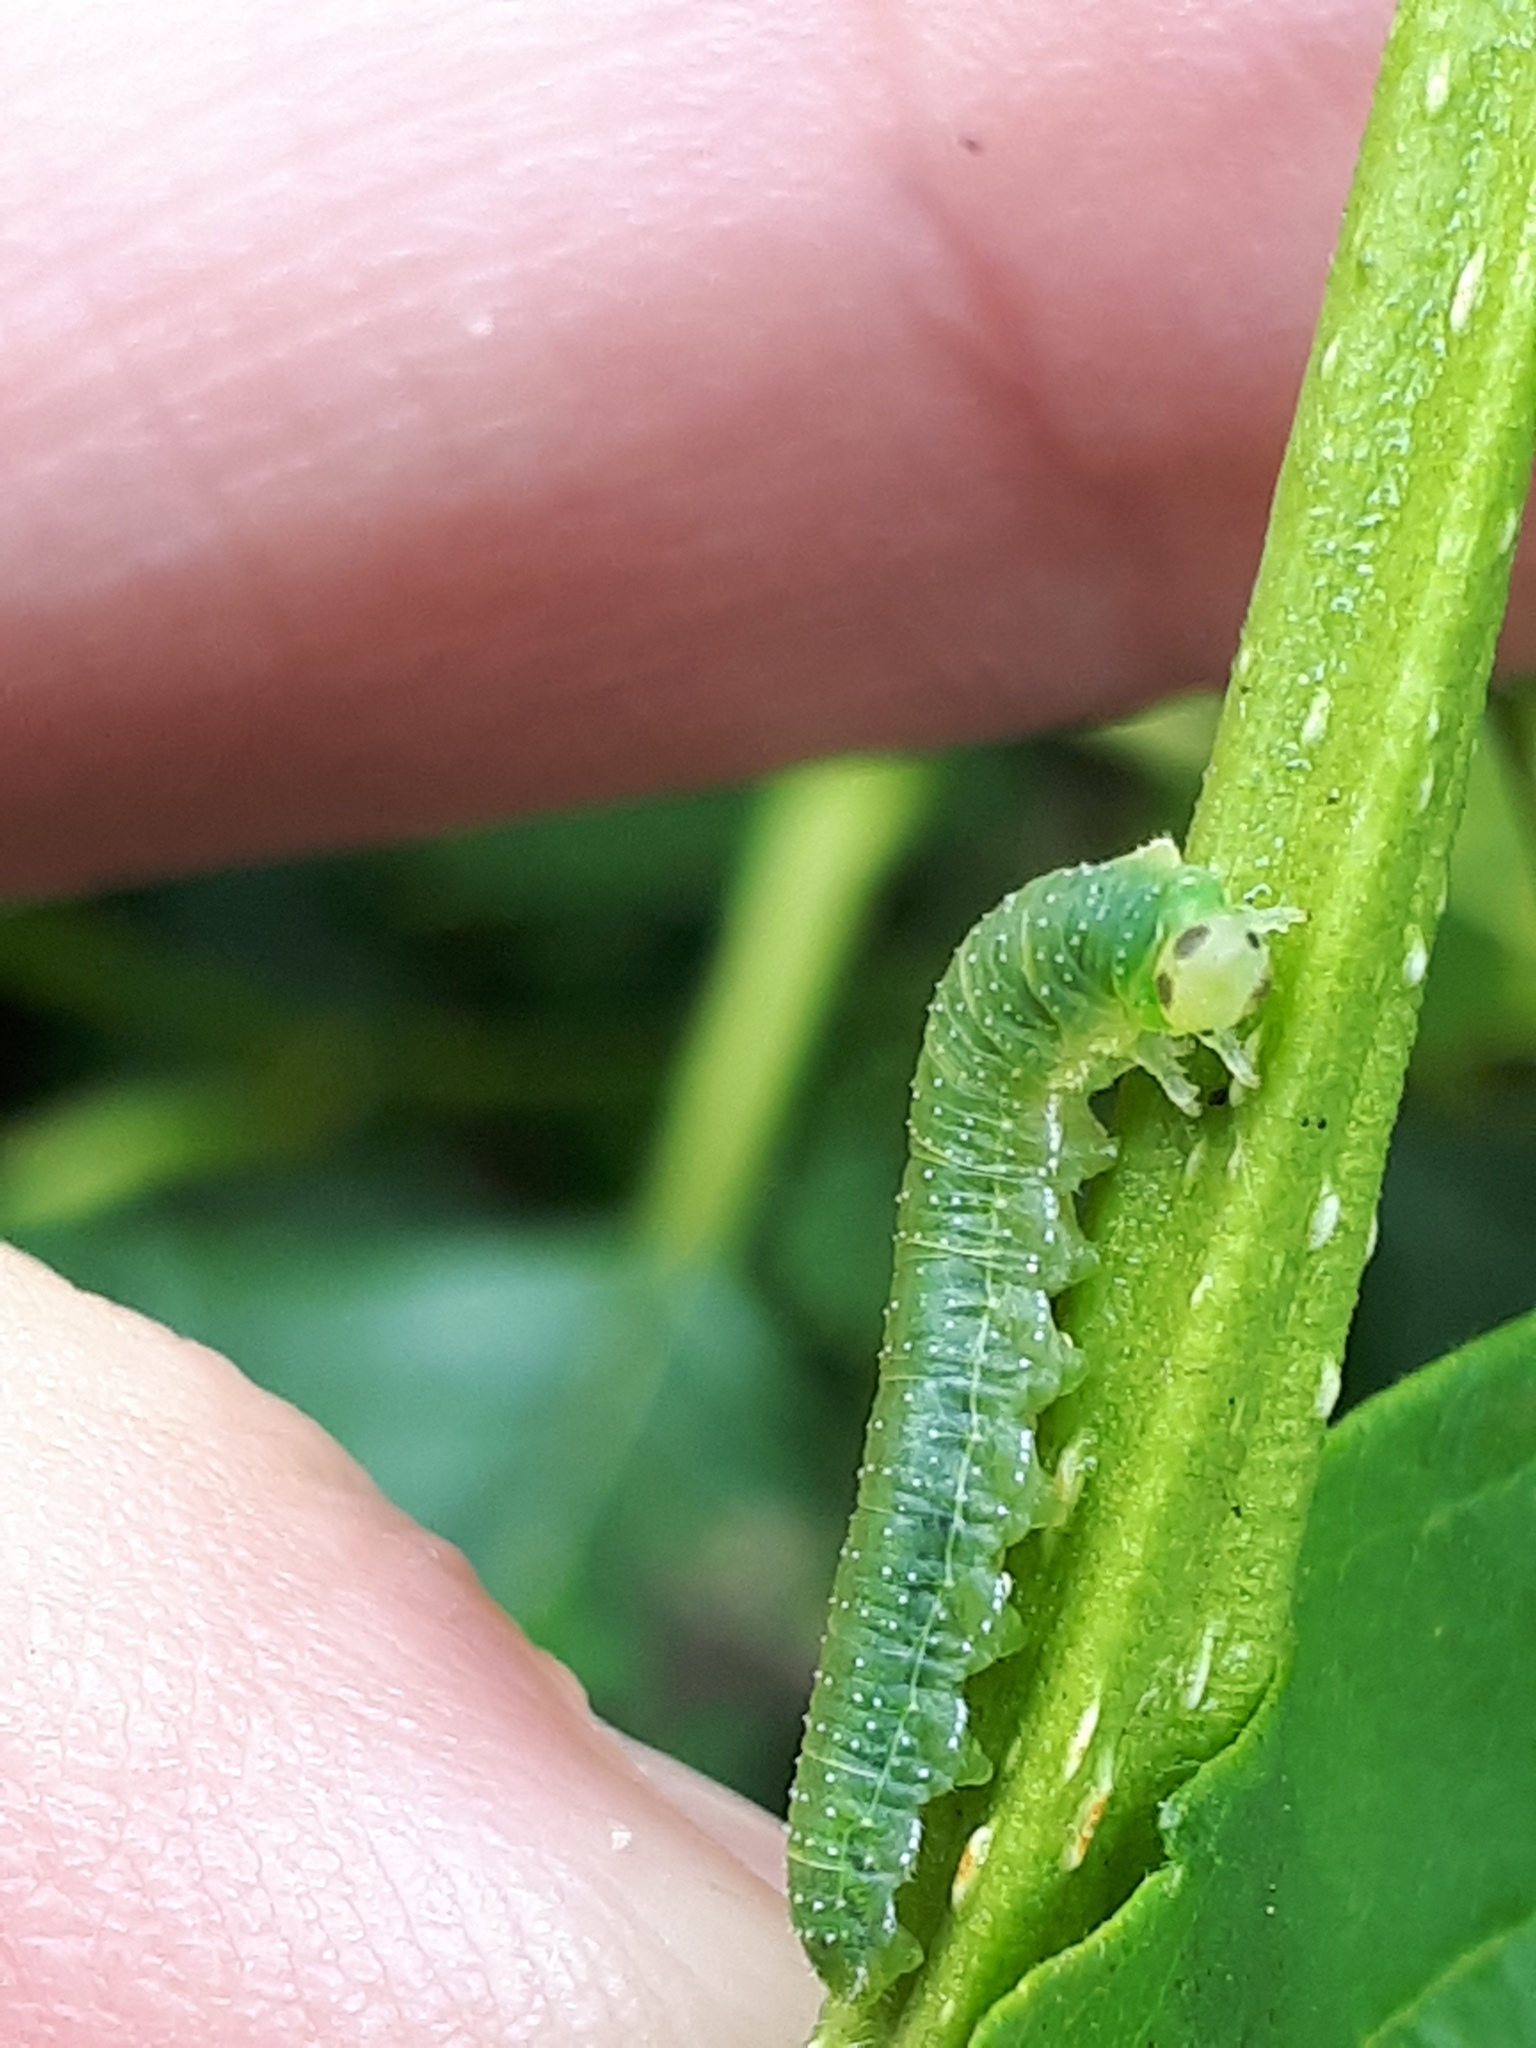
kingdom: Animalia
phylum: Arthropoda
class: Insecta
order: Hymenoptera
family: Tenthredinidae
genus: Nematinus
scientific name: Nematinus steini
